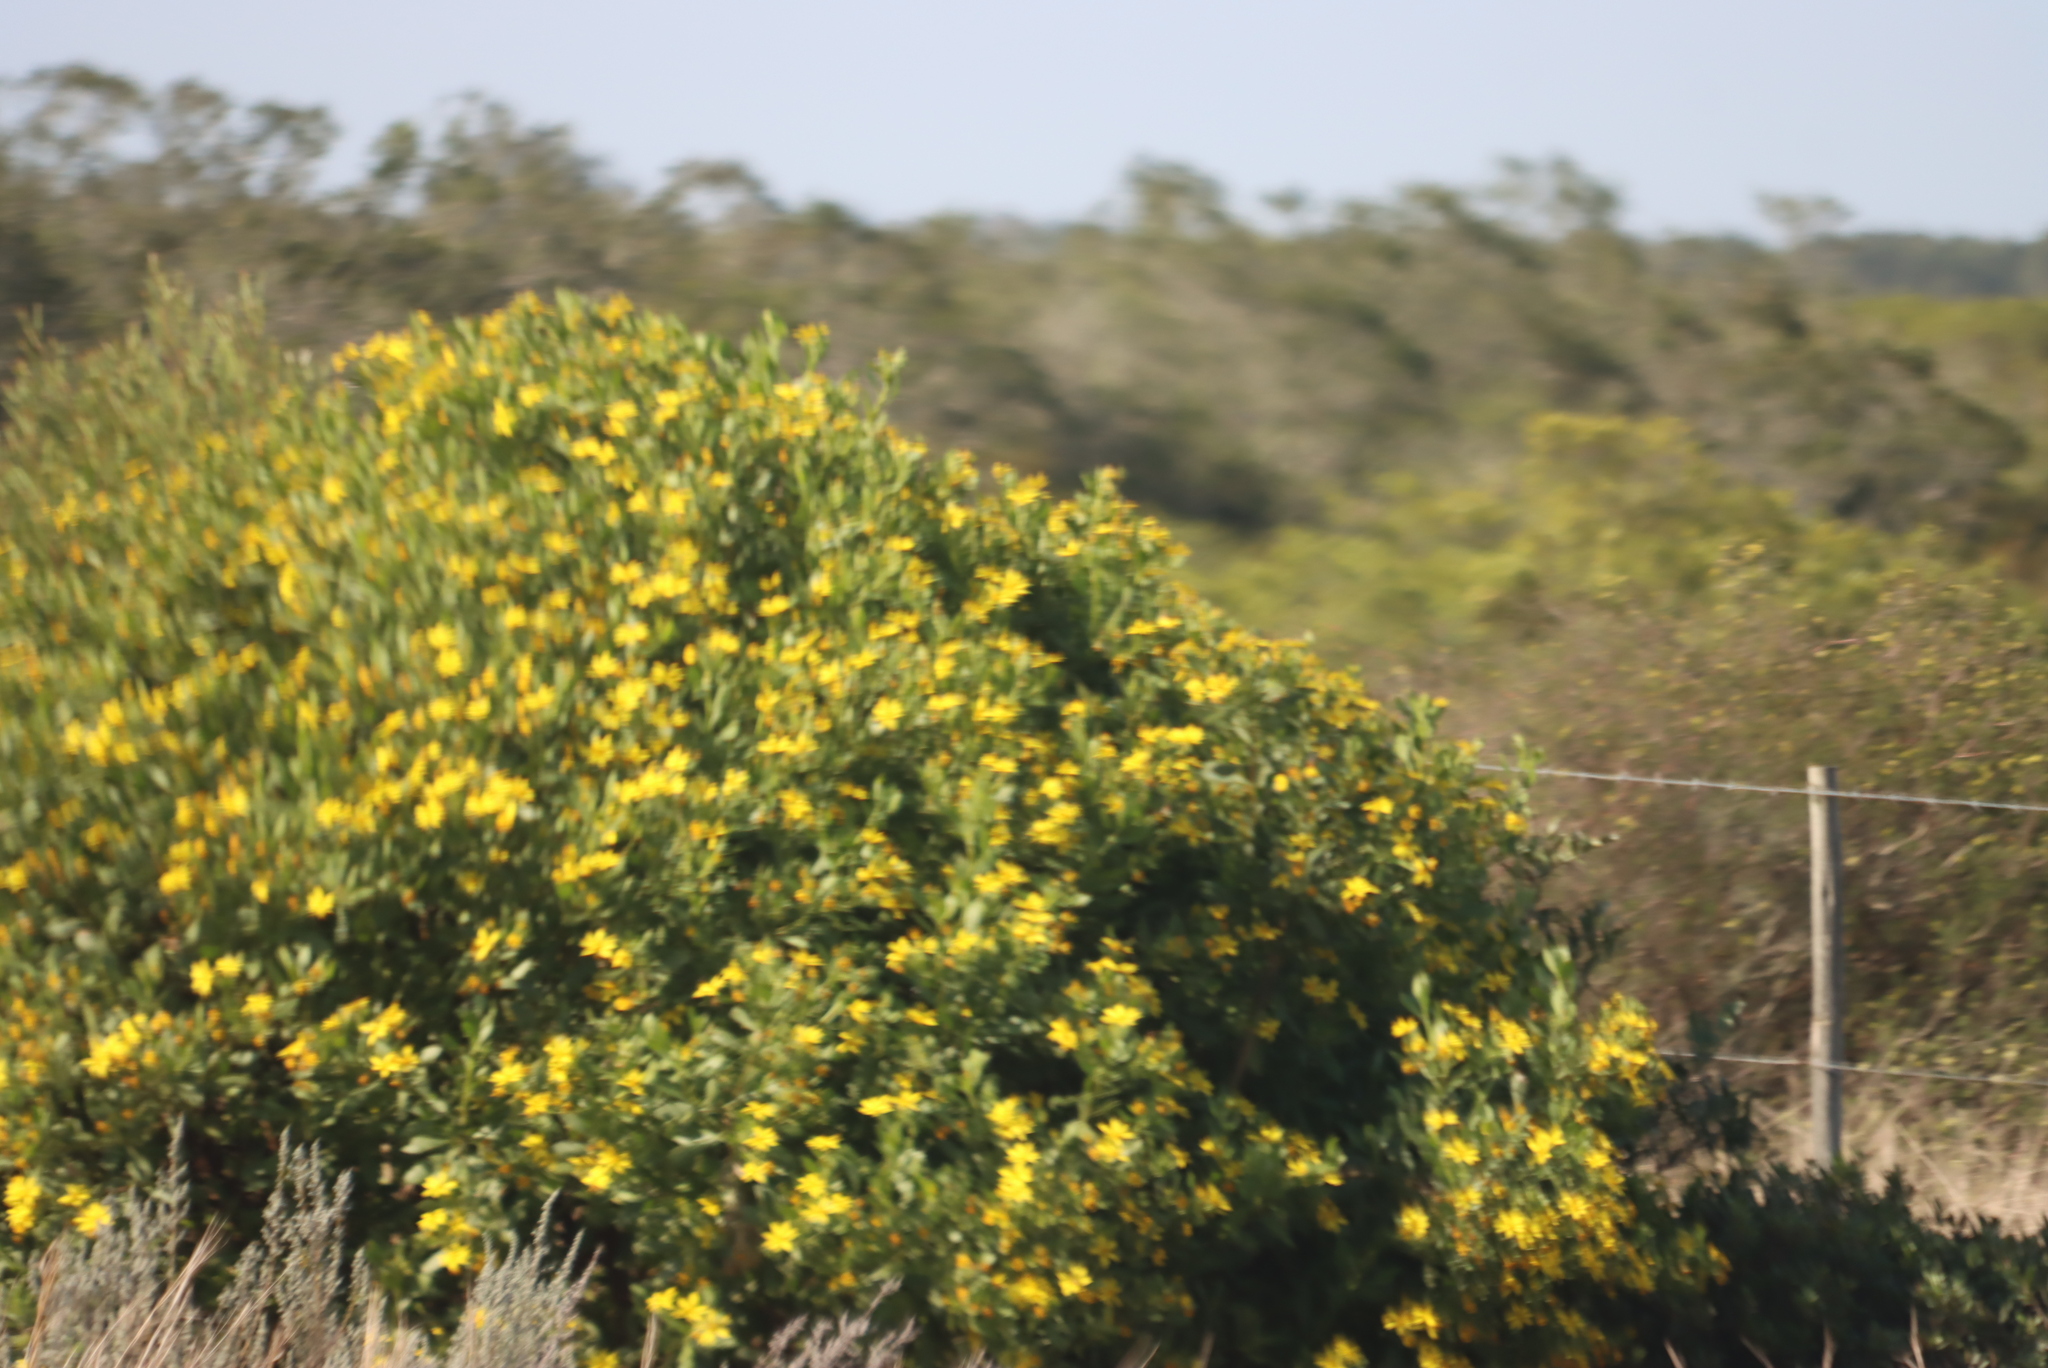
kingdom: Plantae
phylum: Tracheophyta
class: Magnoliopsida
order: Asterales
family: Asteraceae
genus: Osteospermum
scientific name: Osteospermum moniliferum
